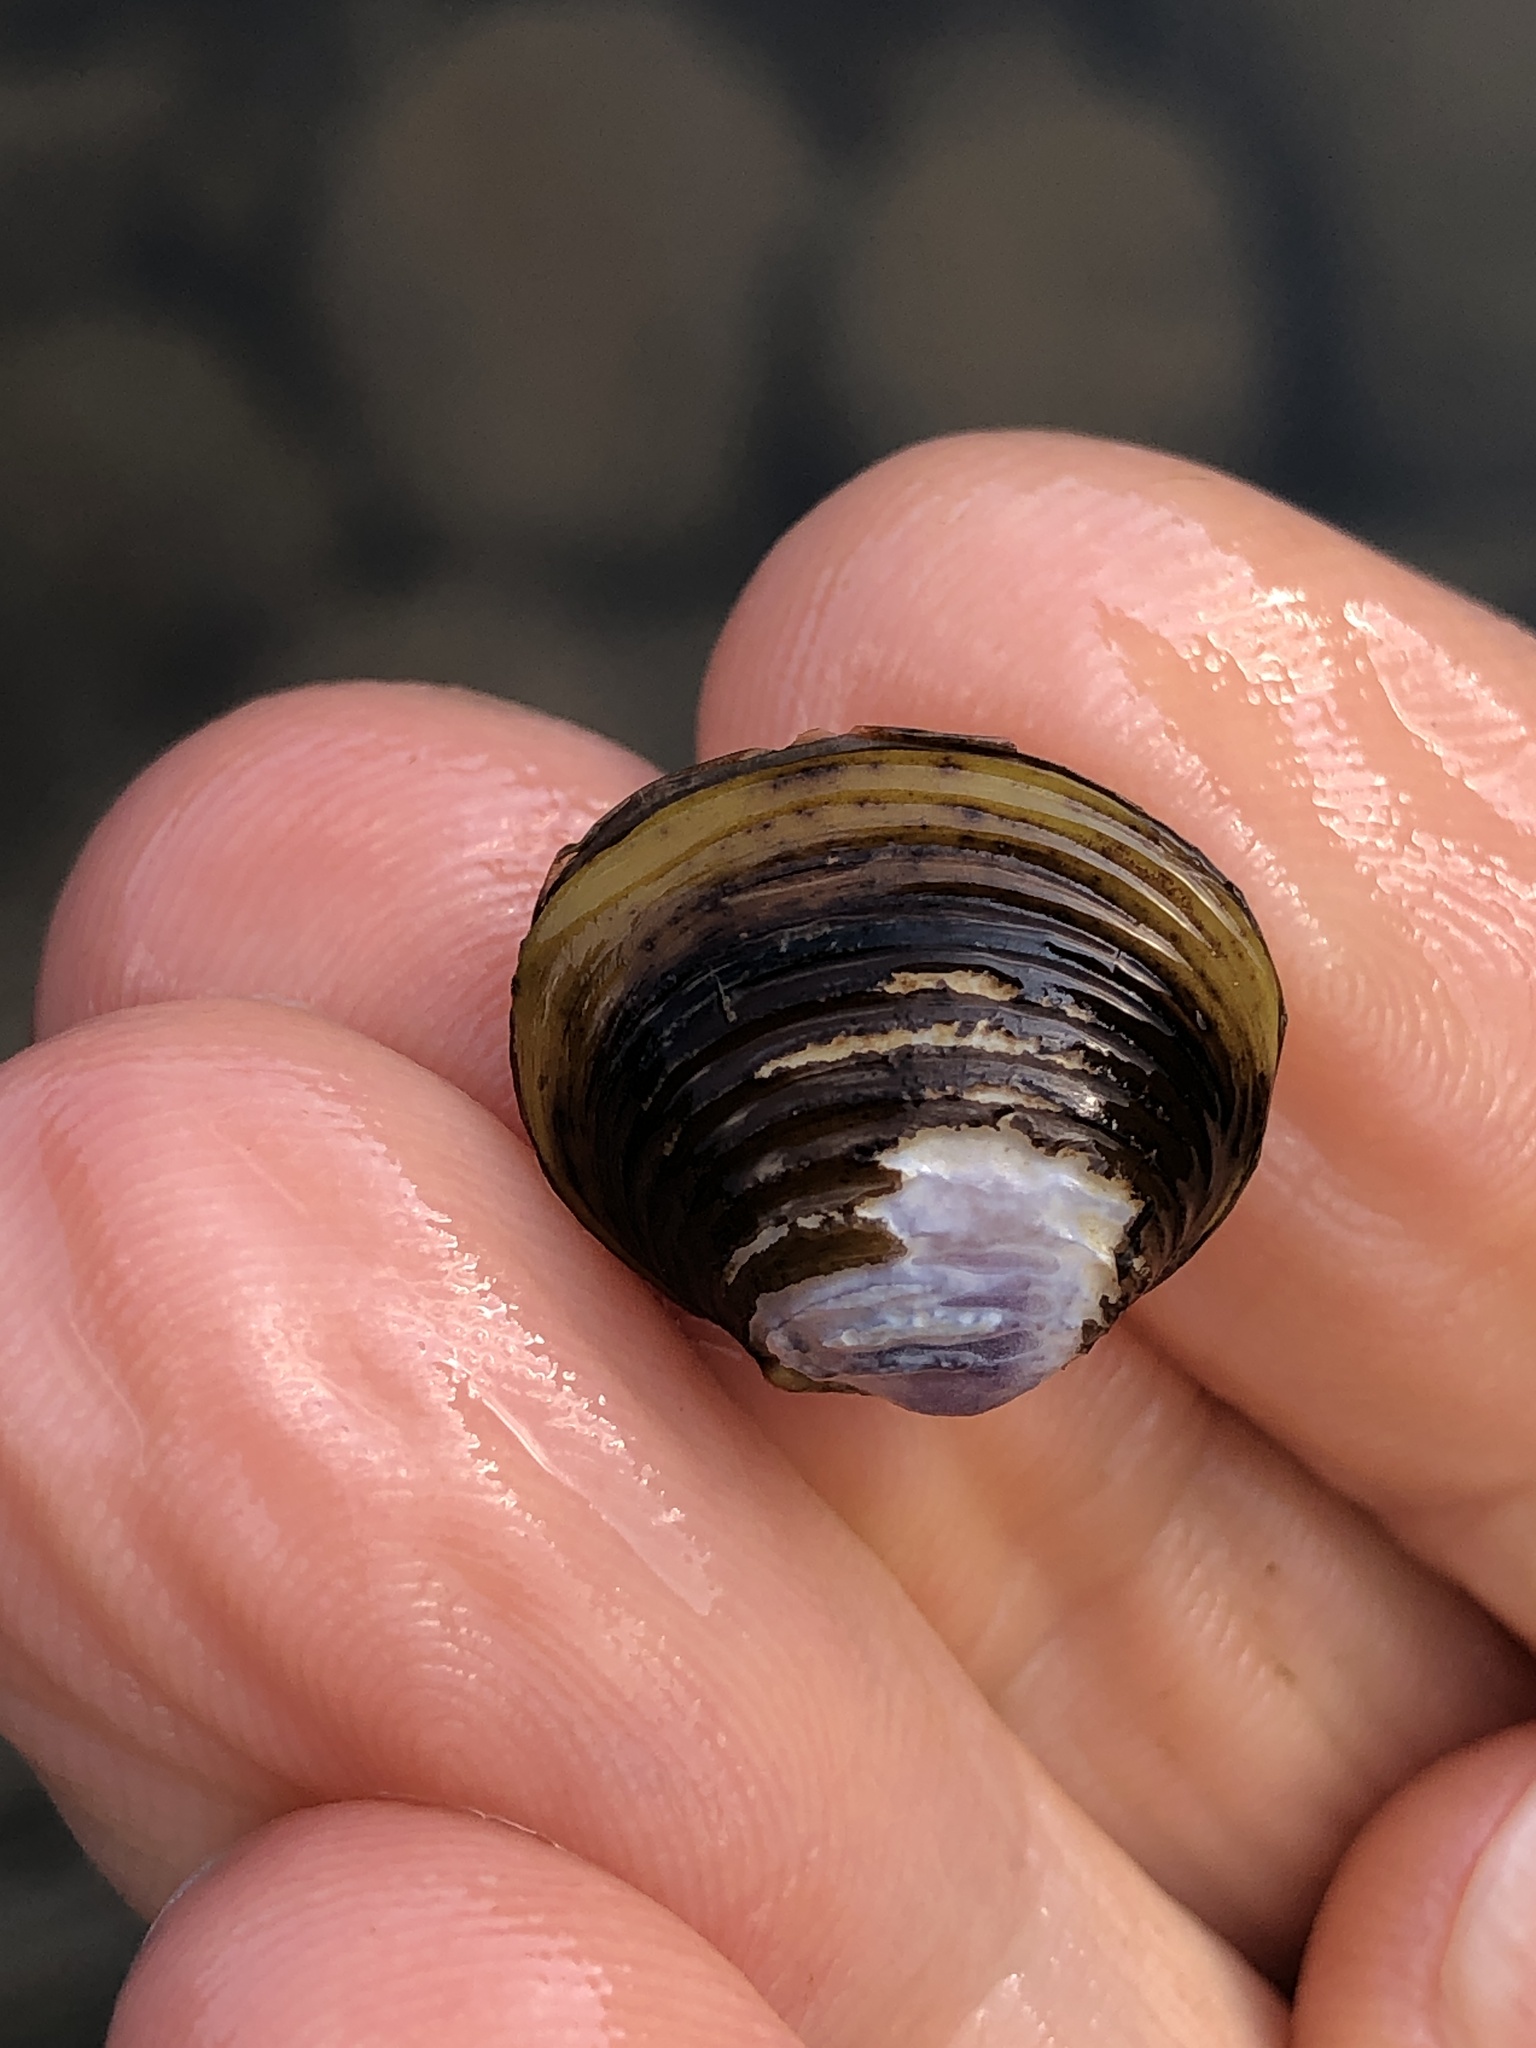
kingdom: Animalia
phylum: Mollusca
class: Bivalvia
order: Venerida
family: Cyrenidae
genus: Corbicula
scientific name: Corbicula fluminea
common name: Asian clam
